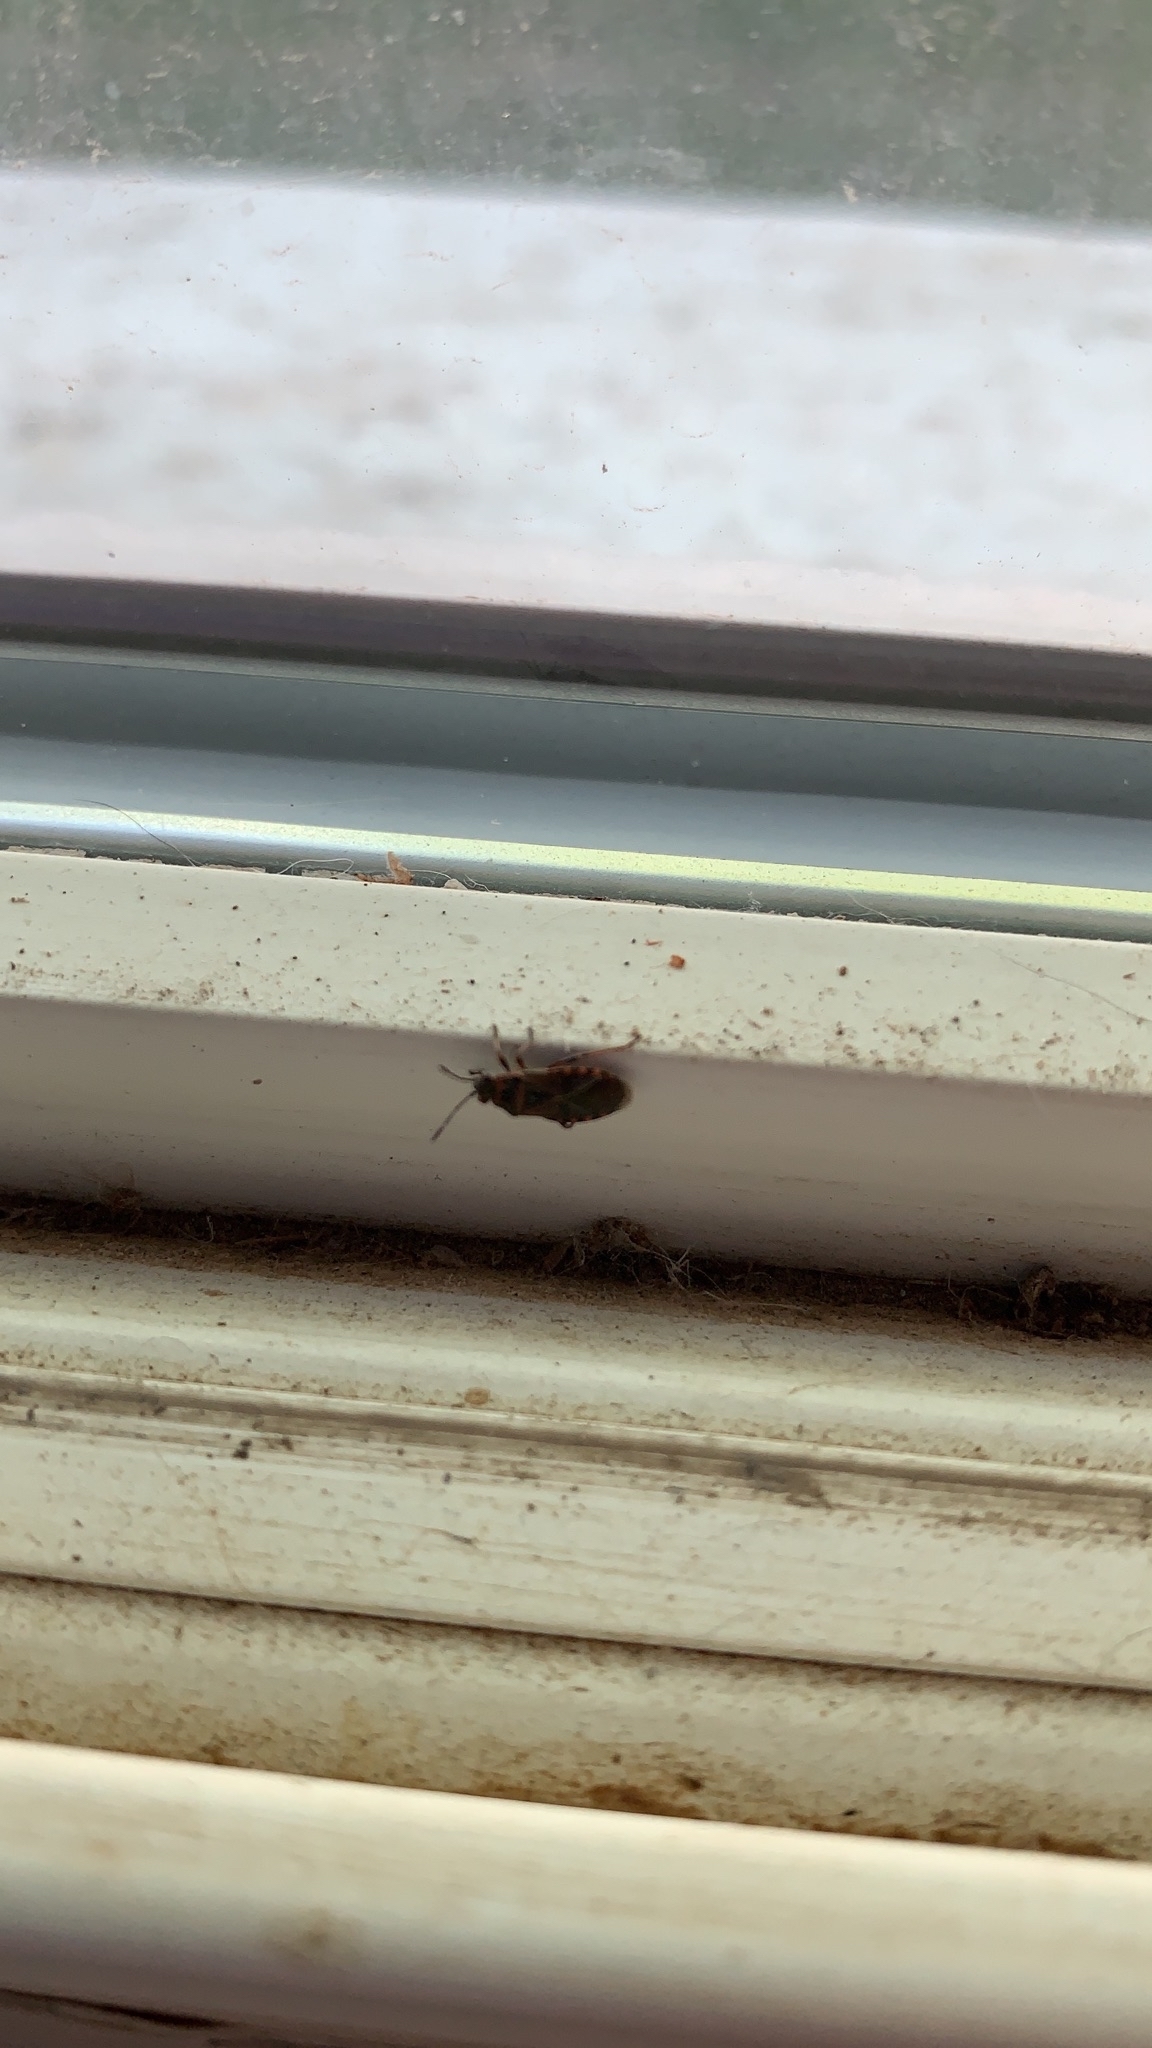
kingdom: Animalia
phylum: Arthropoda
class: Insecta
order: Hemiptera
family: Lygaeidae
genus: Arocatus
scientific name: Arocatus melanocephalus
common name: Lygaeid bug
